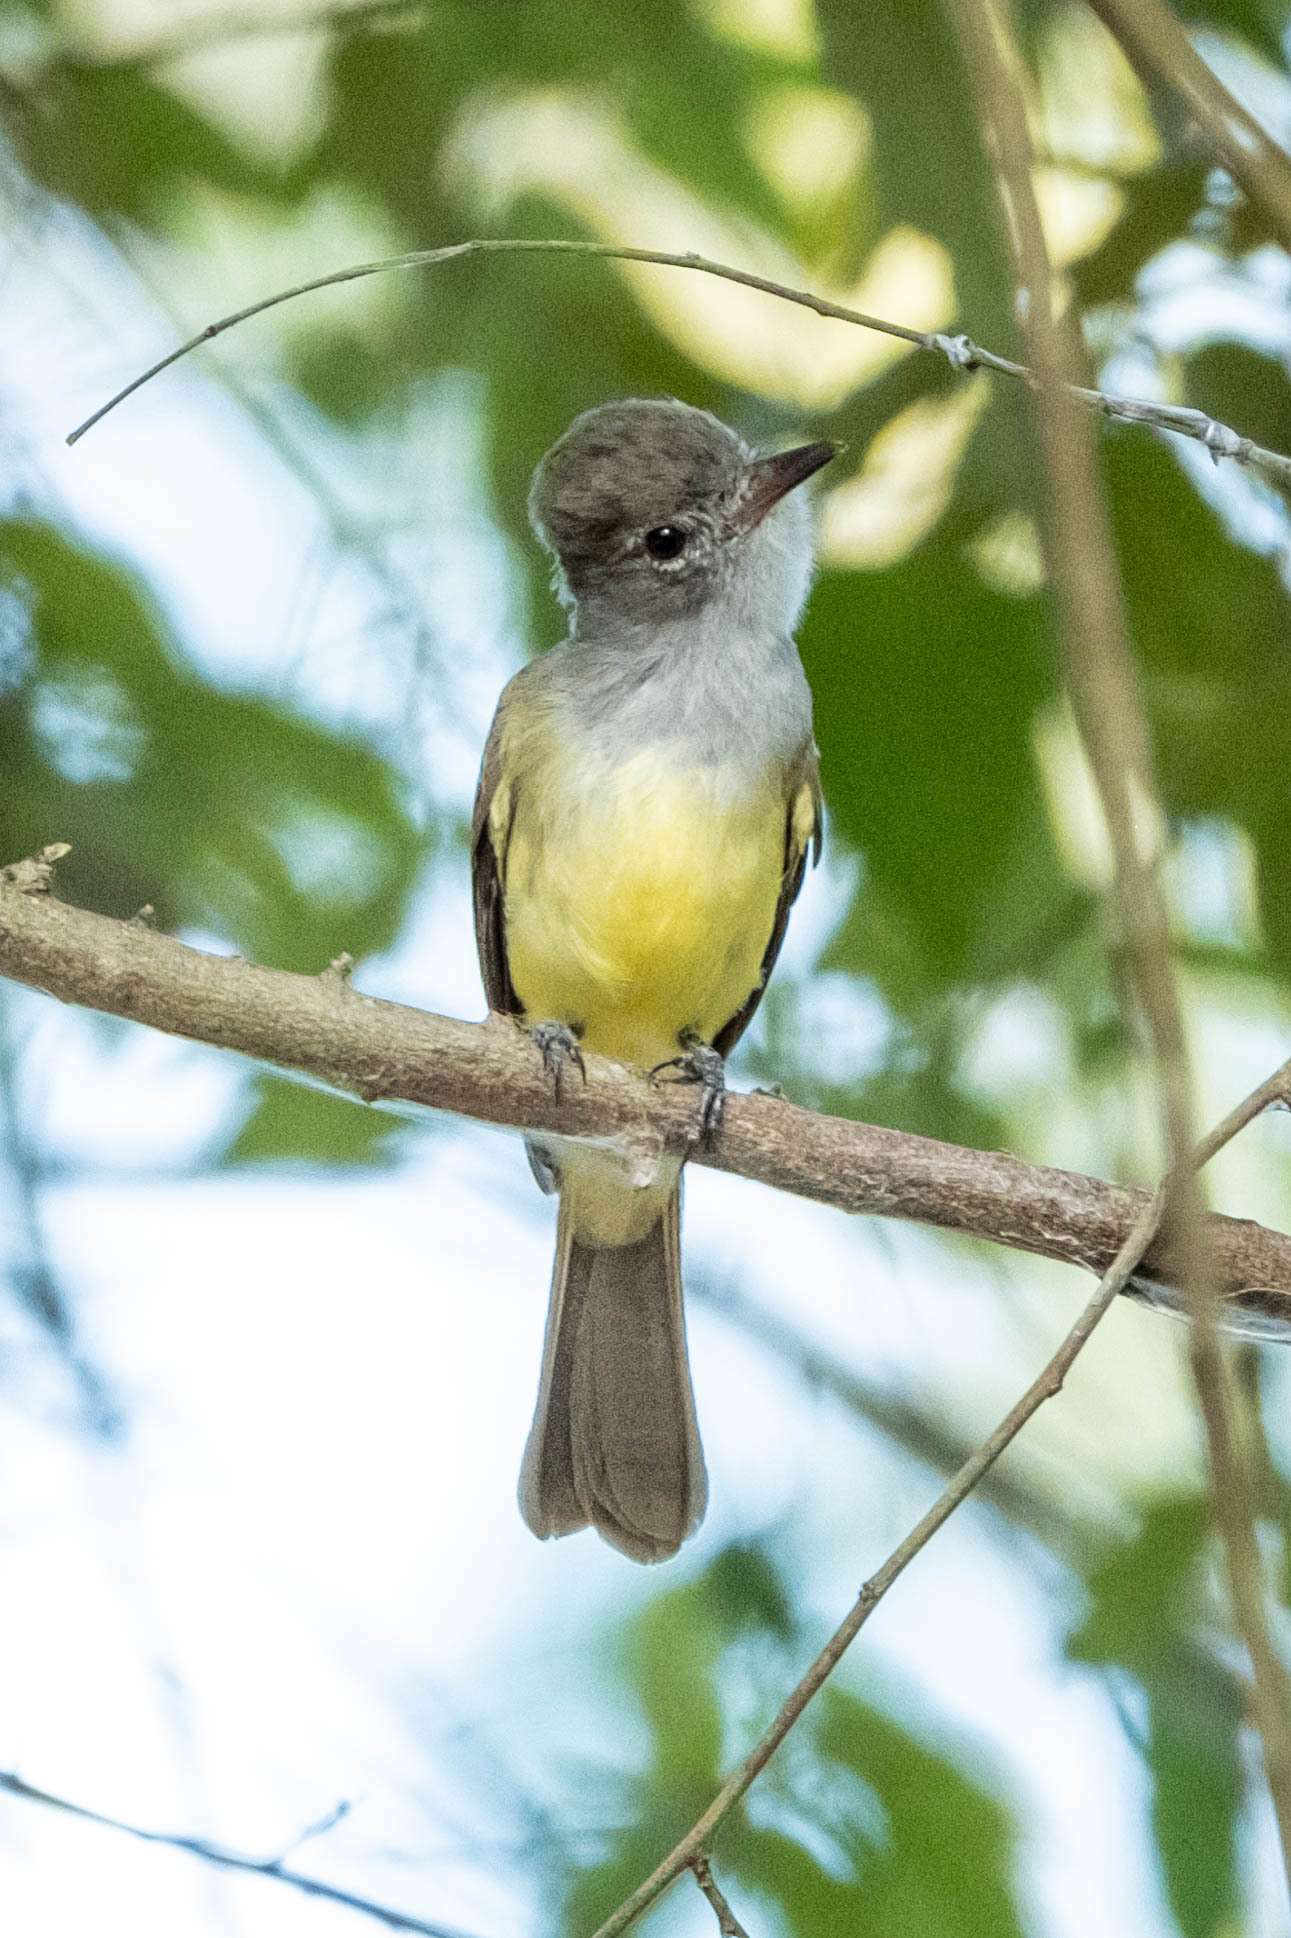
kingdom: Animalia
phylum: Chordata
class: Aves
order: Passeriformes
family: Tyrannidae
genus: Myiarchus
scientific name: Myiarchus panamensis
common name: Panama flycatcher
